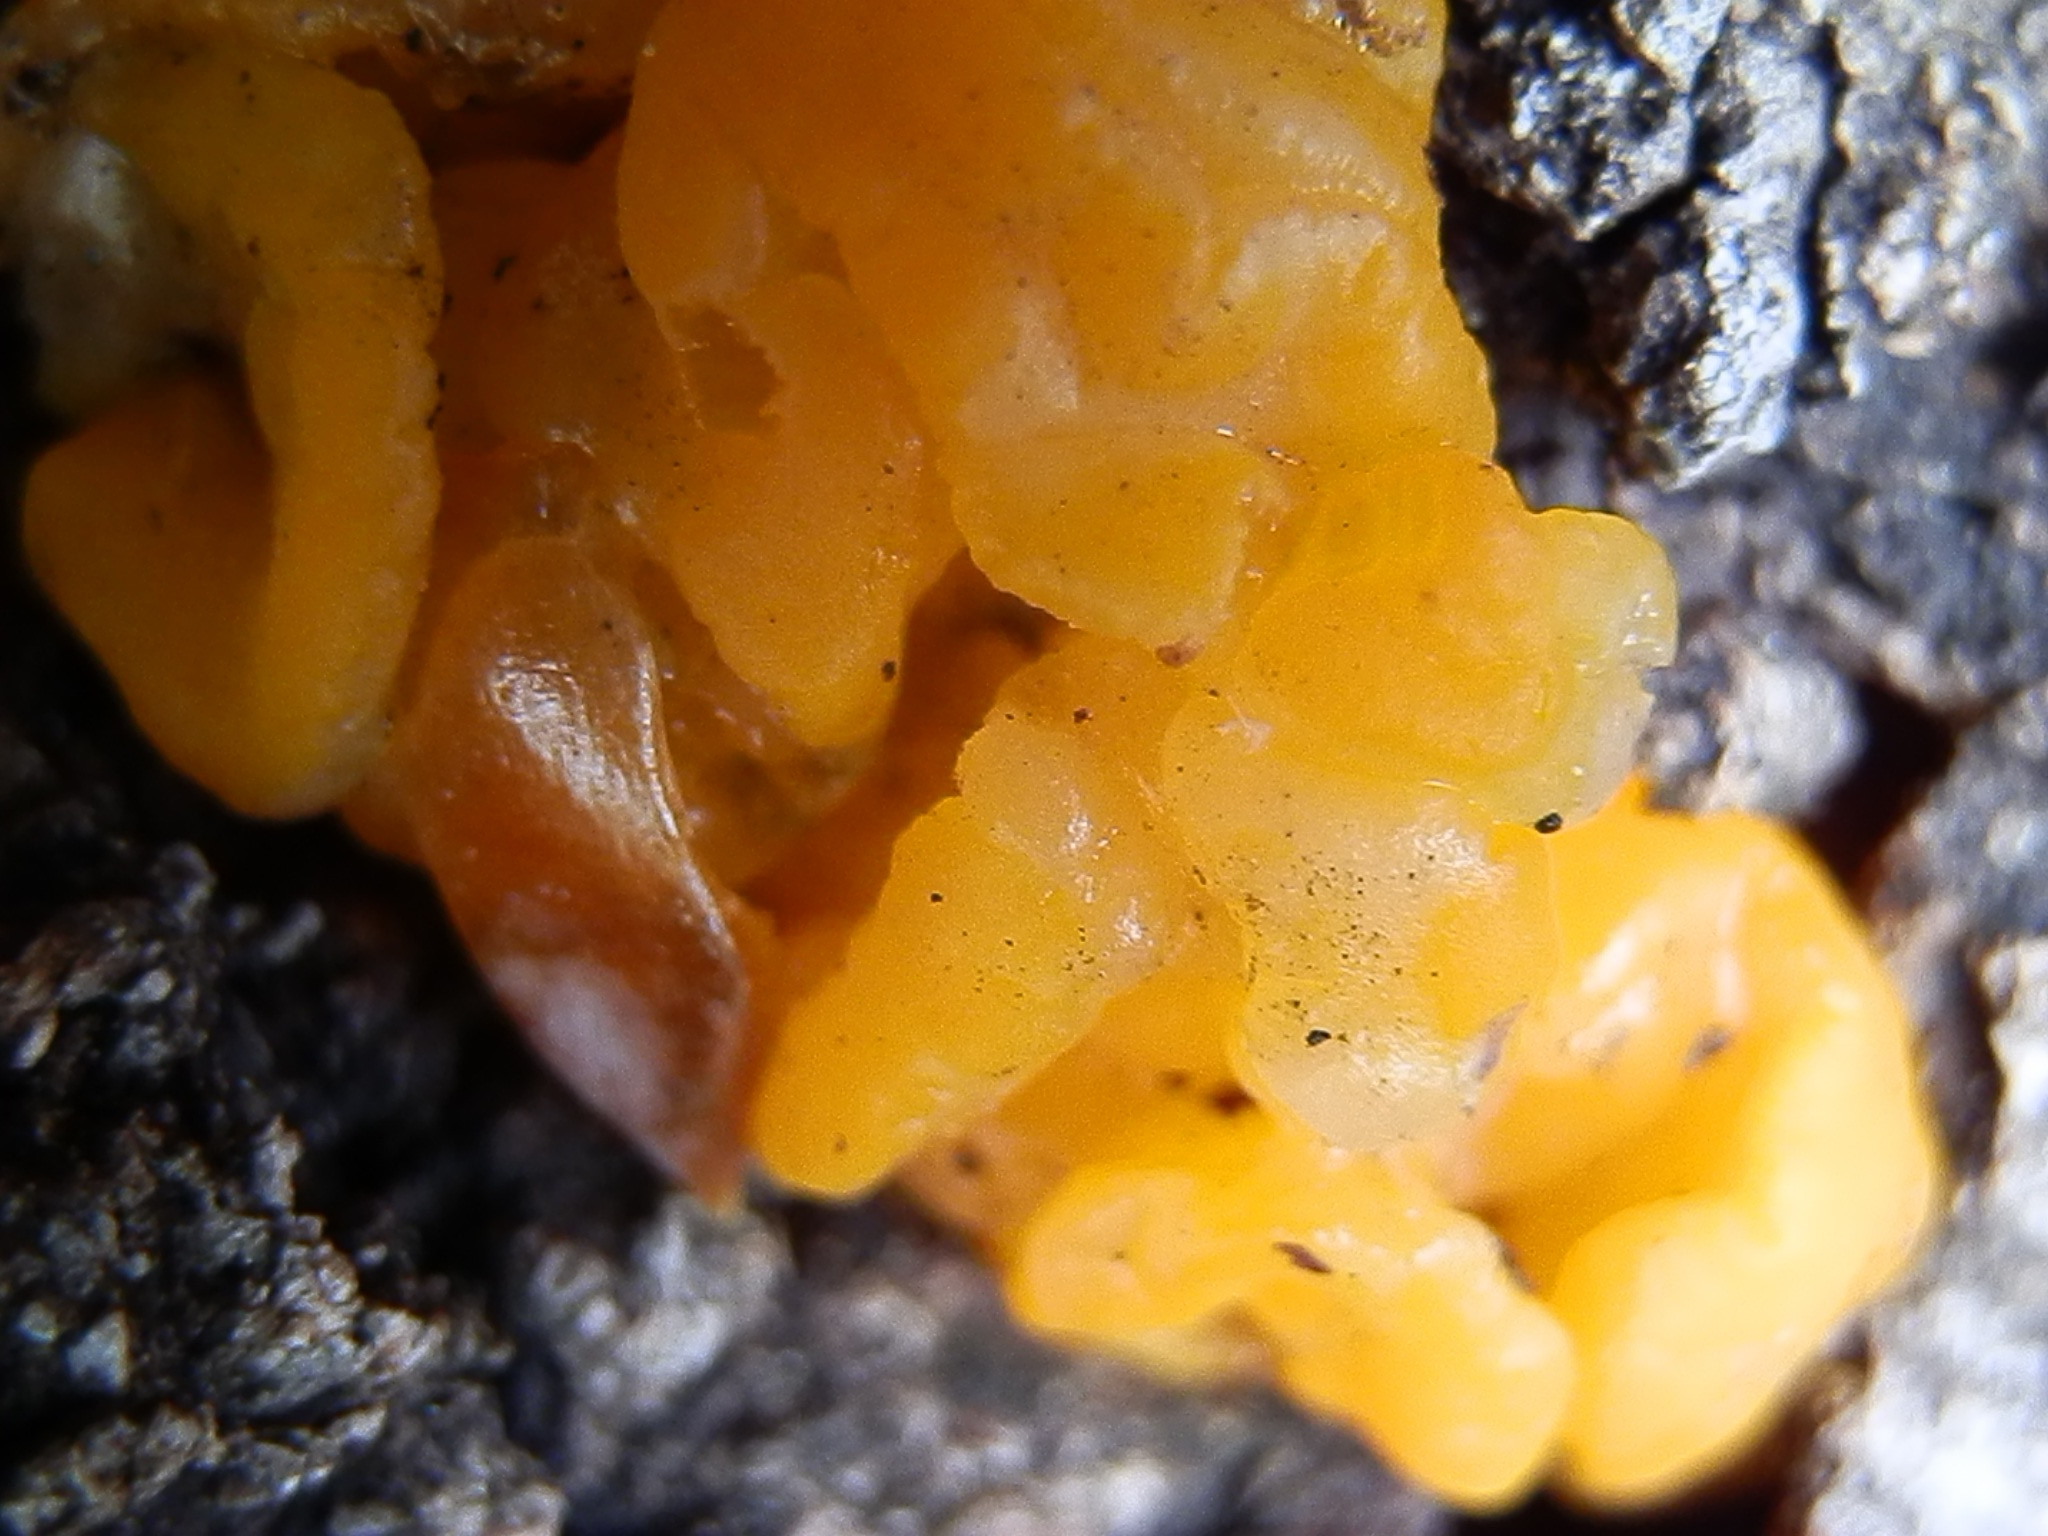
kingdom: Fungi
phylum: Basidiomycota
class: Dacrymycetes
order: Dacrymycetales
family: Dacrymycetaceae
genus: Dacrymyces
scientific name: Dacrymyces dictyosporus
